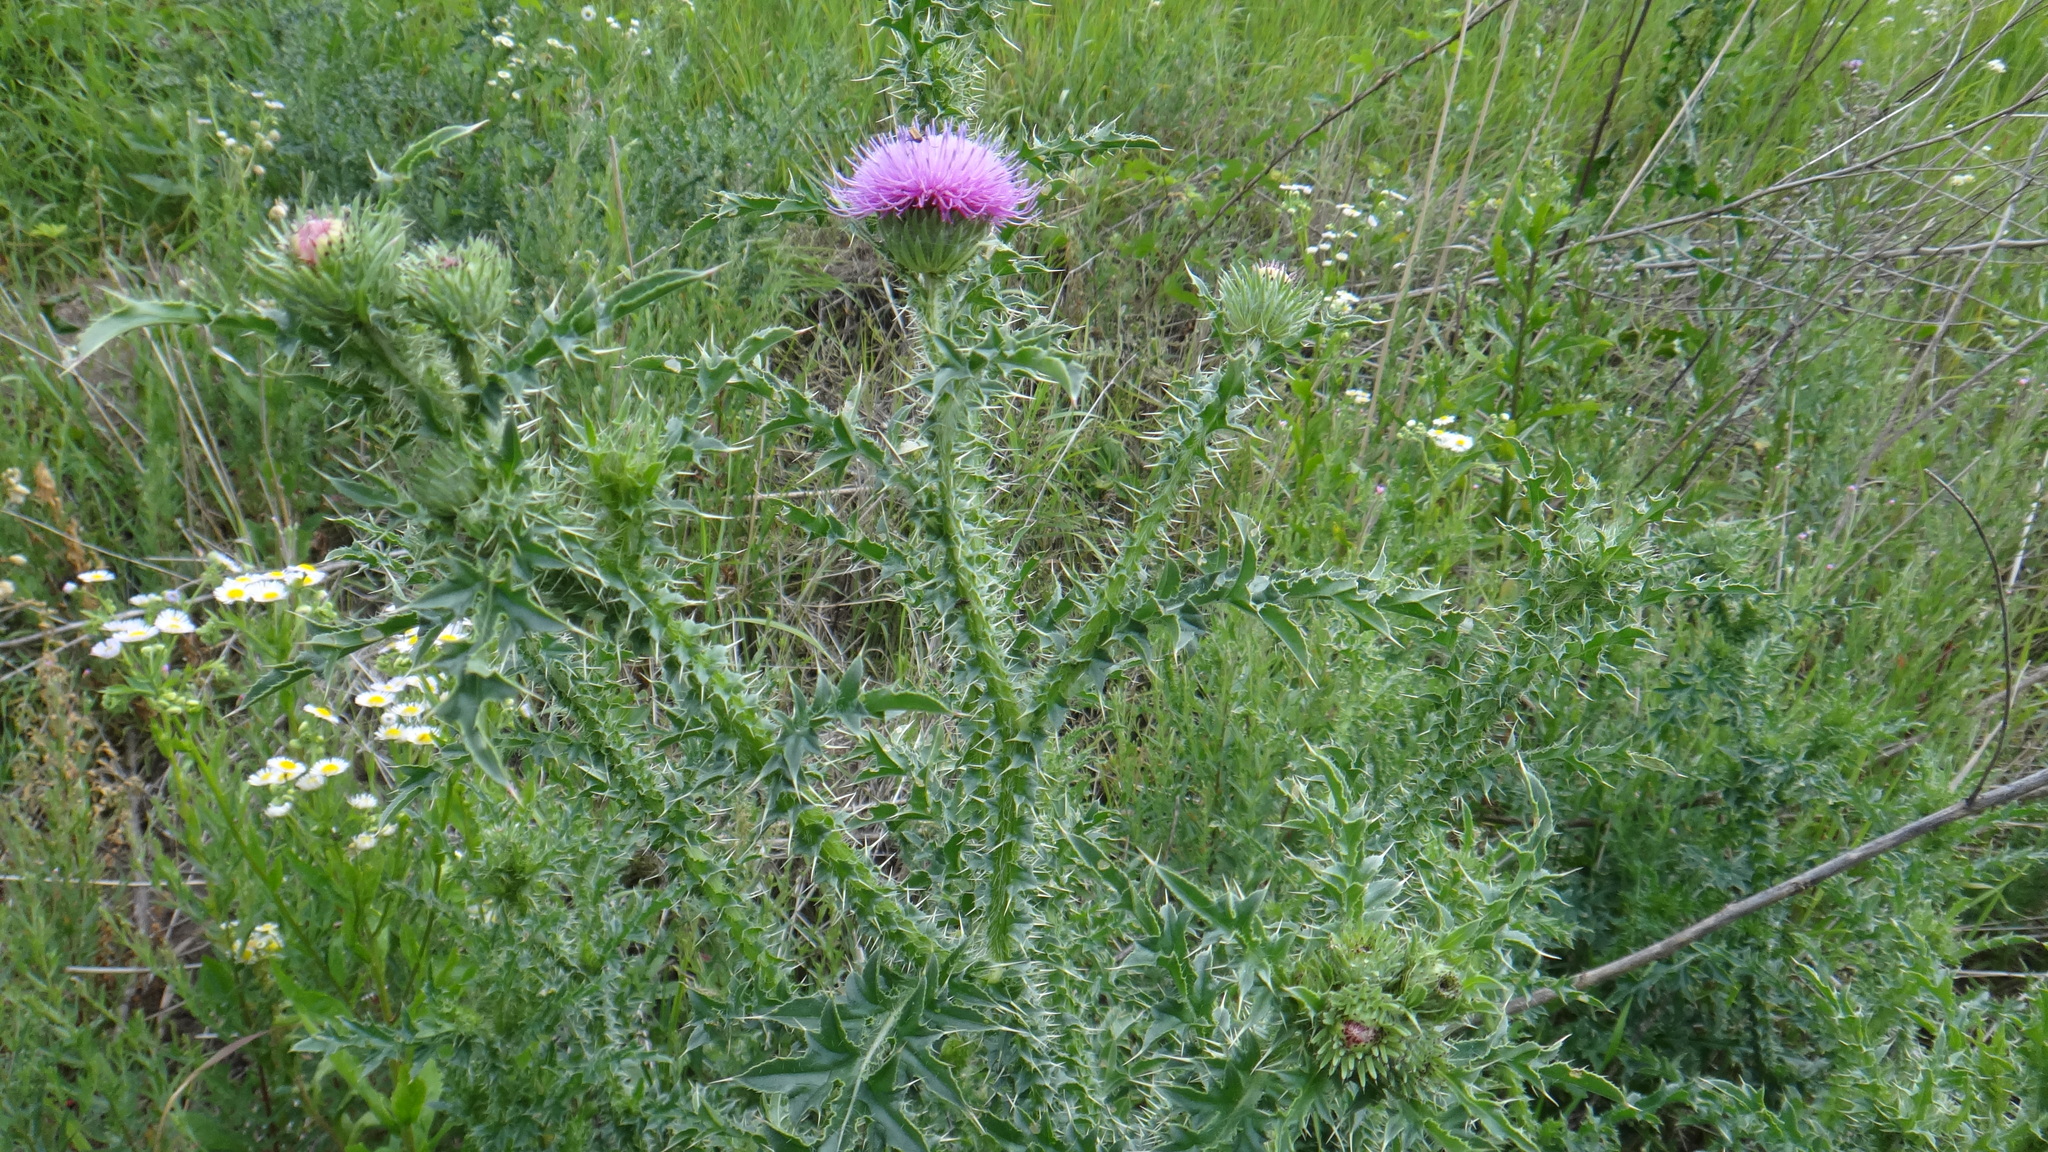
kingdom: Plantae
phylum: Tracheophyta
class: Magnoliopsida
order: Asterales
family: Asteraceae
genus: Carduus
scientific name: Carduus acanthoides
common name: Plumeless thistle
